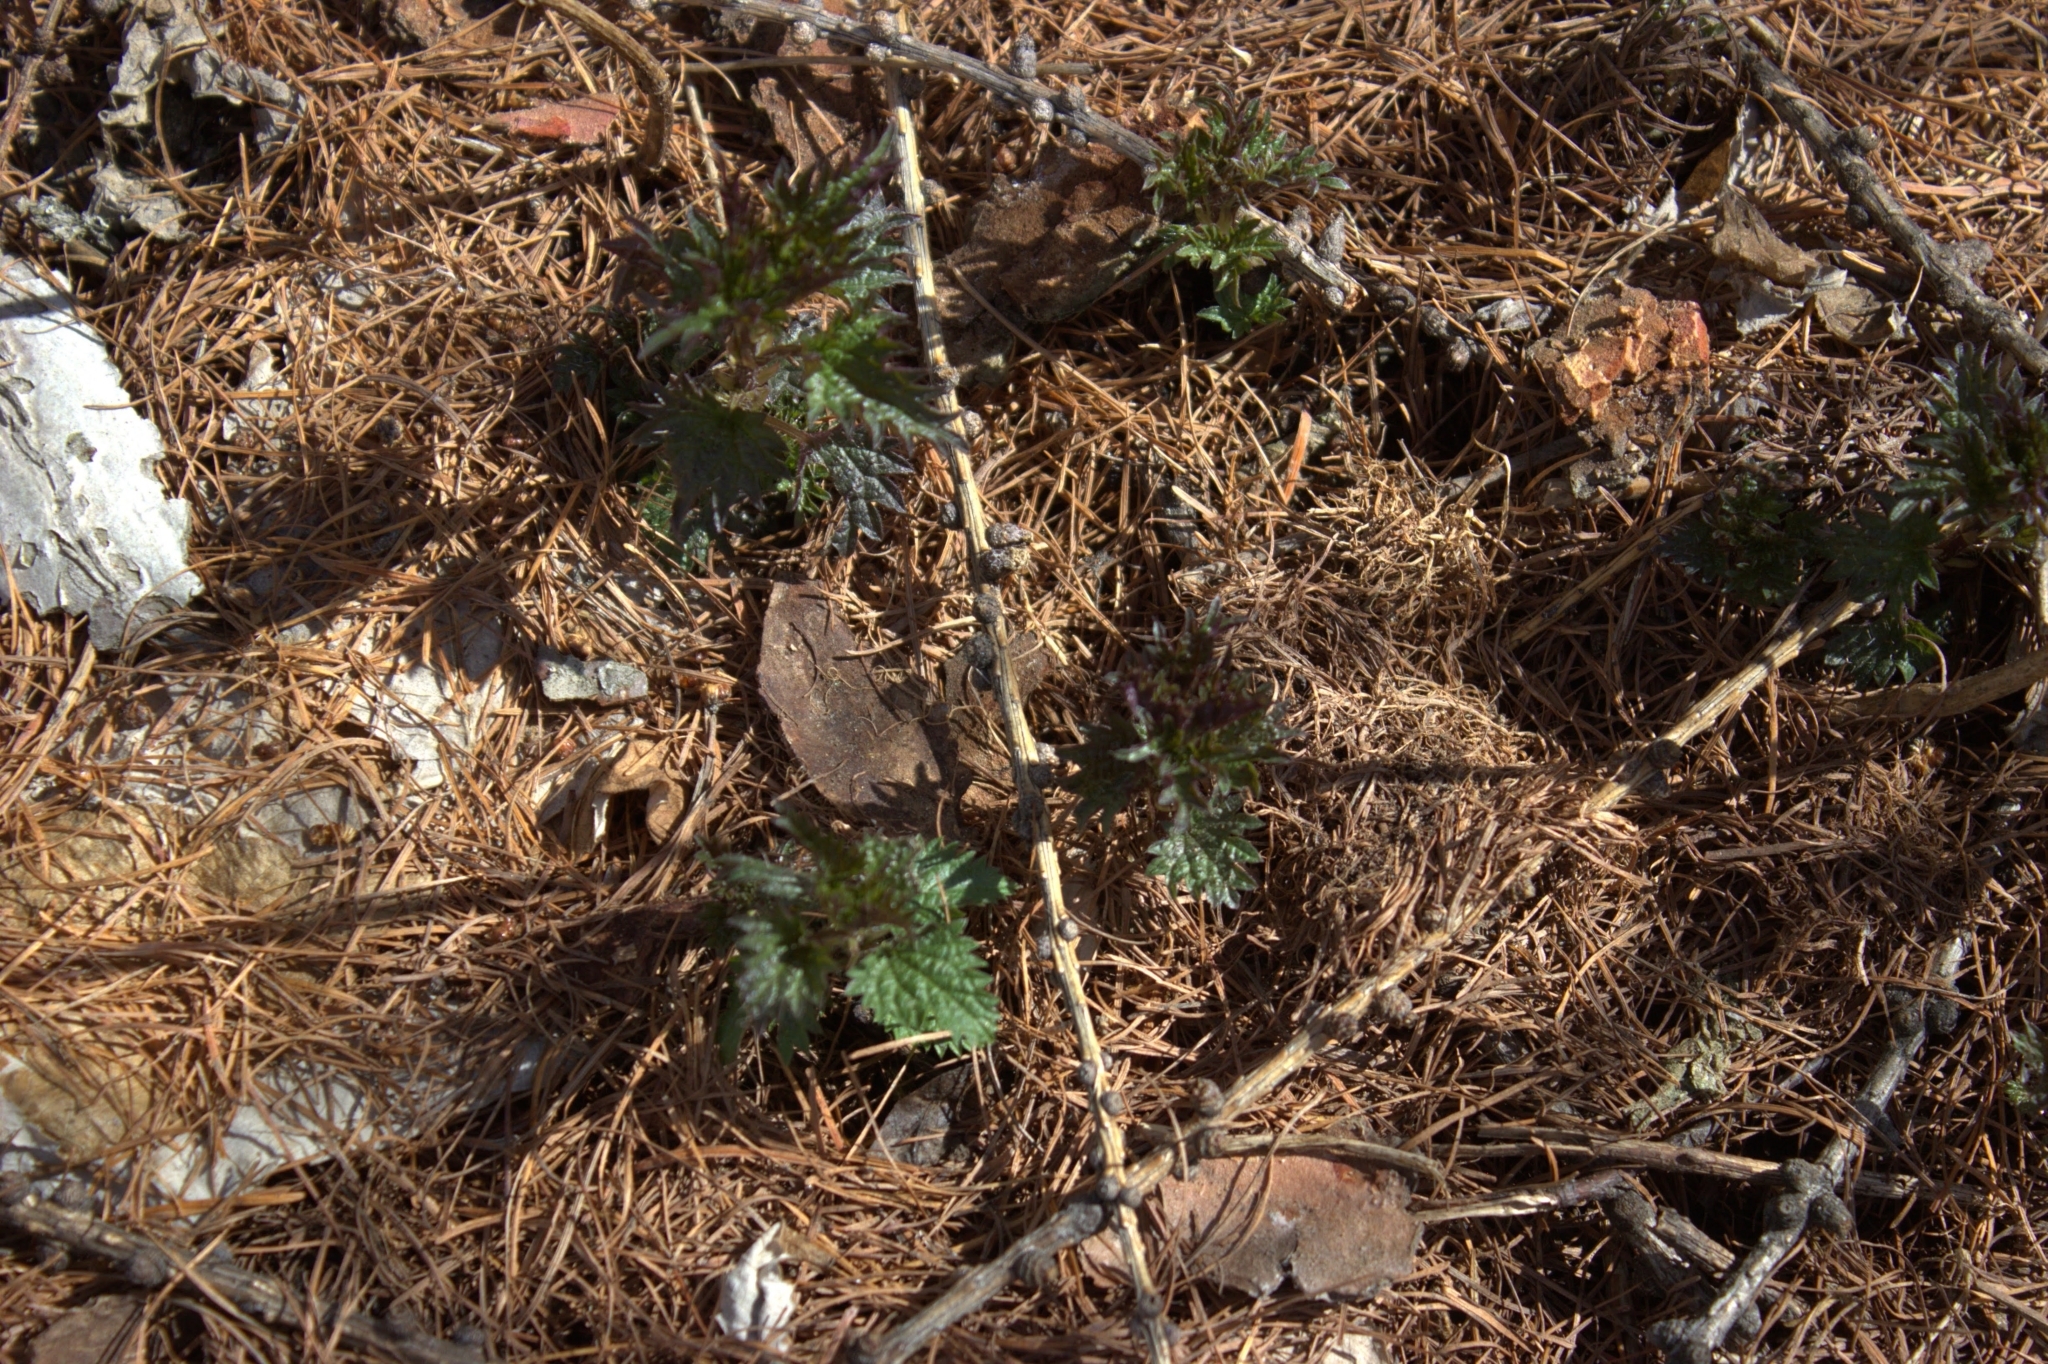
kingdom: Plantae
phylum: Tracheophyta
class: Magnoliopsida
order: Rosales
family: Urticaceae
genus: Urtica
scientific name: Urtica dioica
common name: Common nettle
